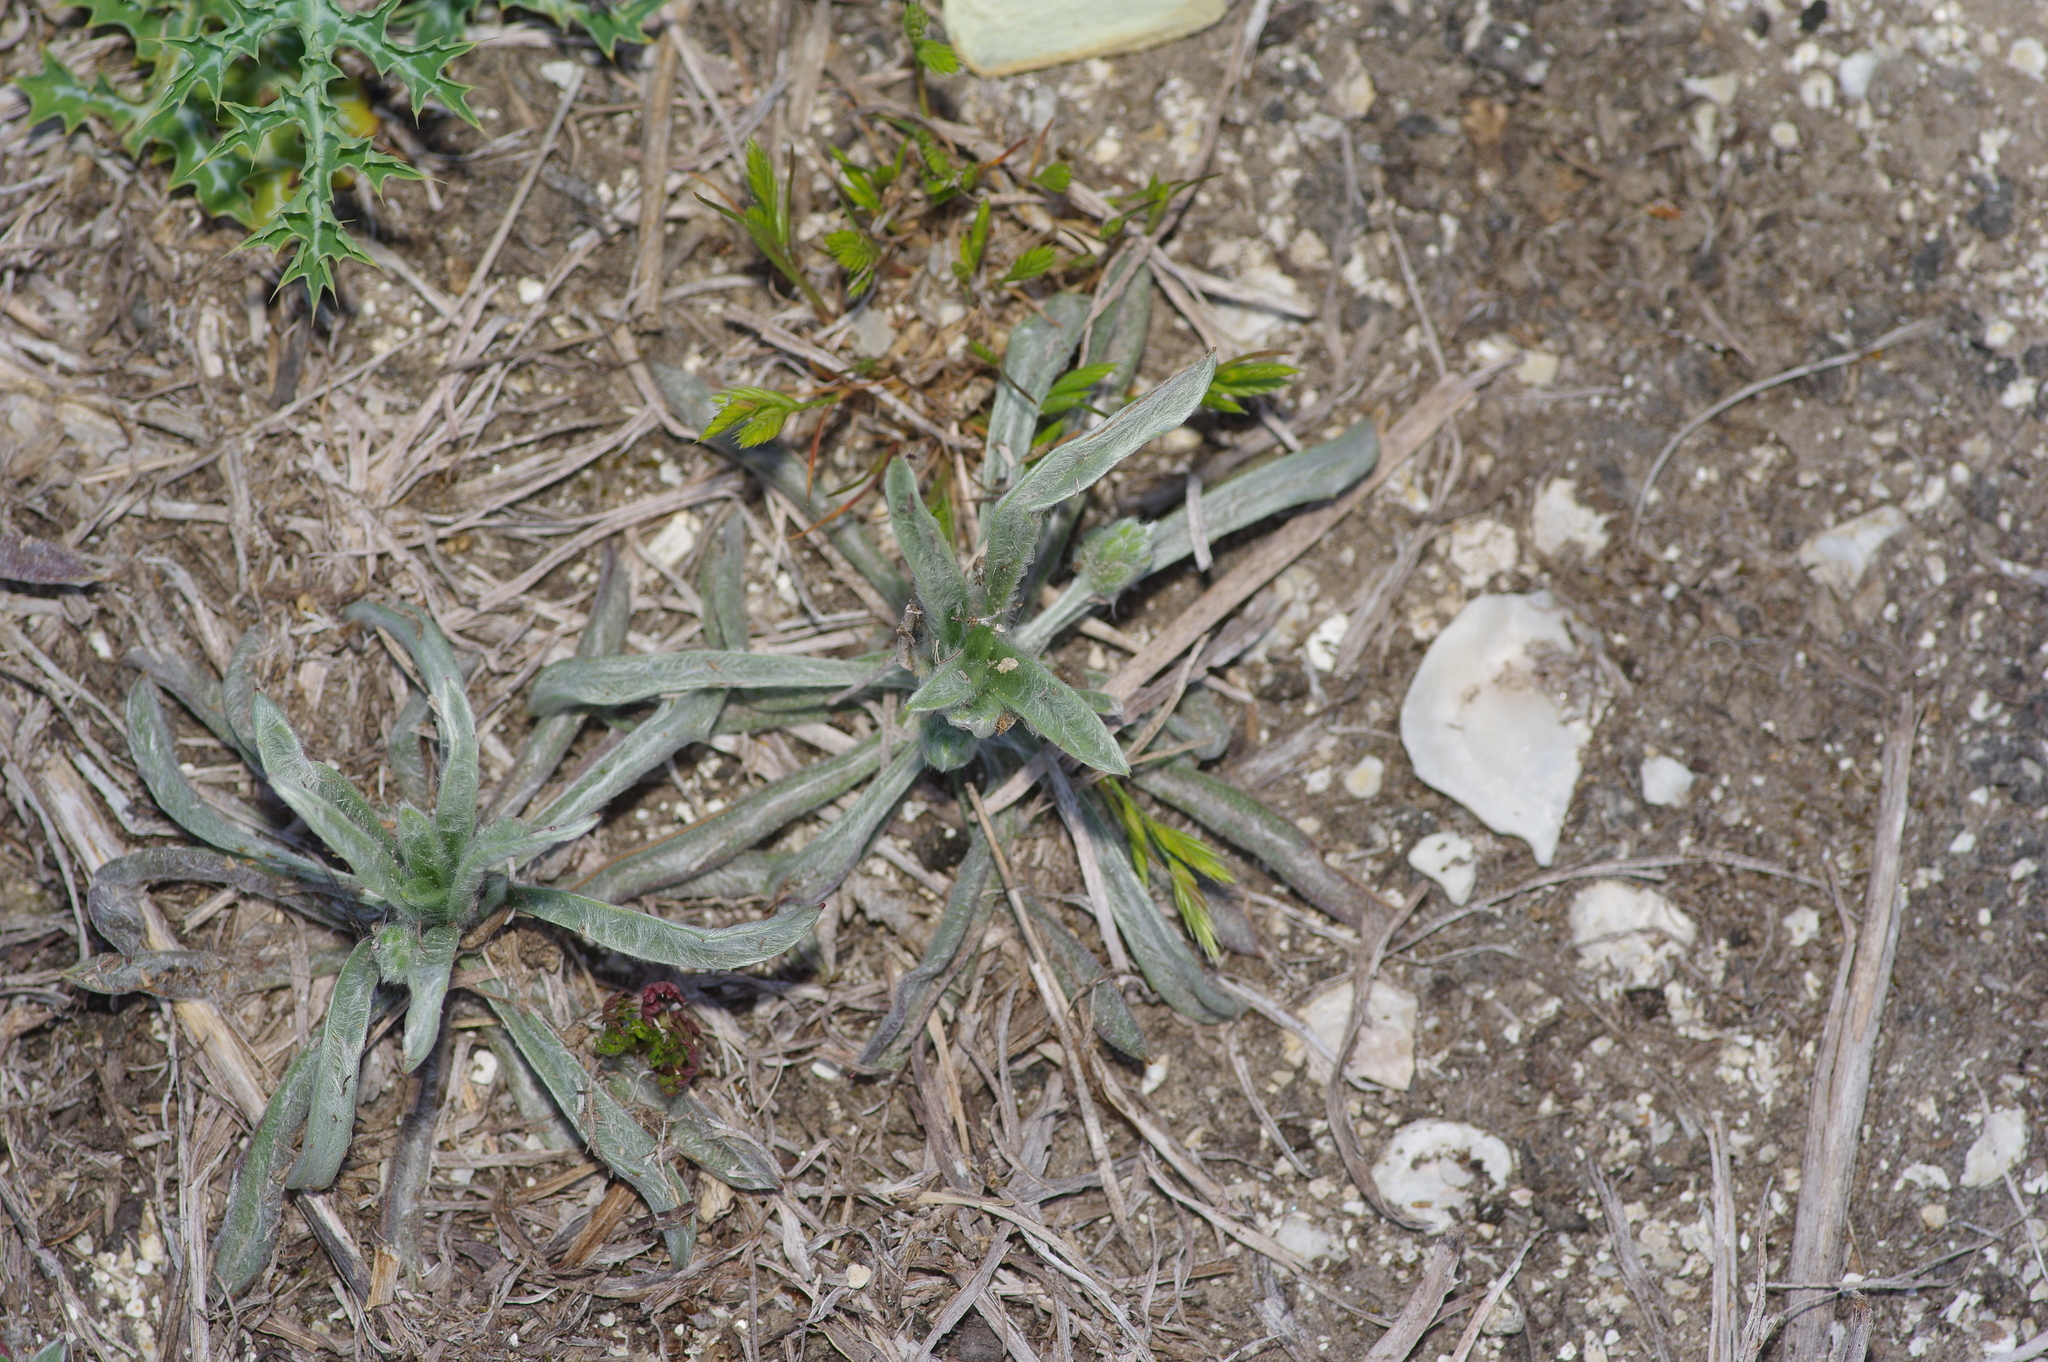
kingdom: Plantae
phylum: Tracheophyta
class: Magnoliopsida
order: Lamiales
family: Plantaginaceae
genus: Plantago
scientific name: Plantago helleri
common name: Heller's plantain
